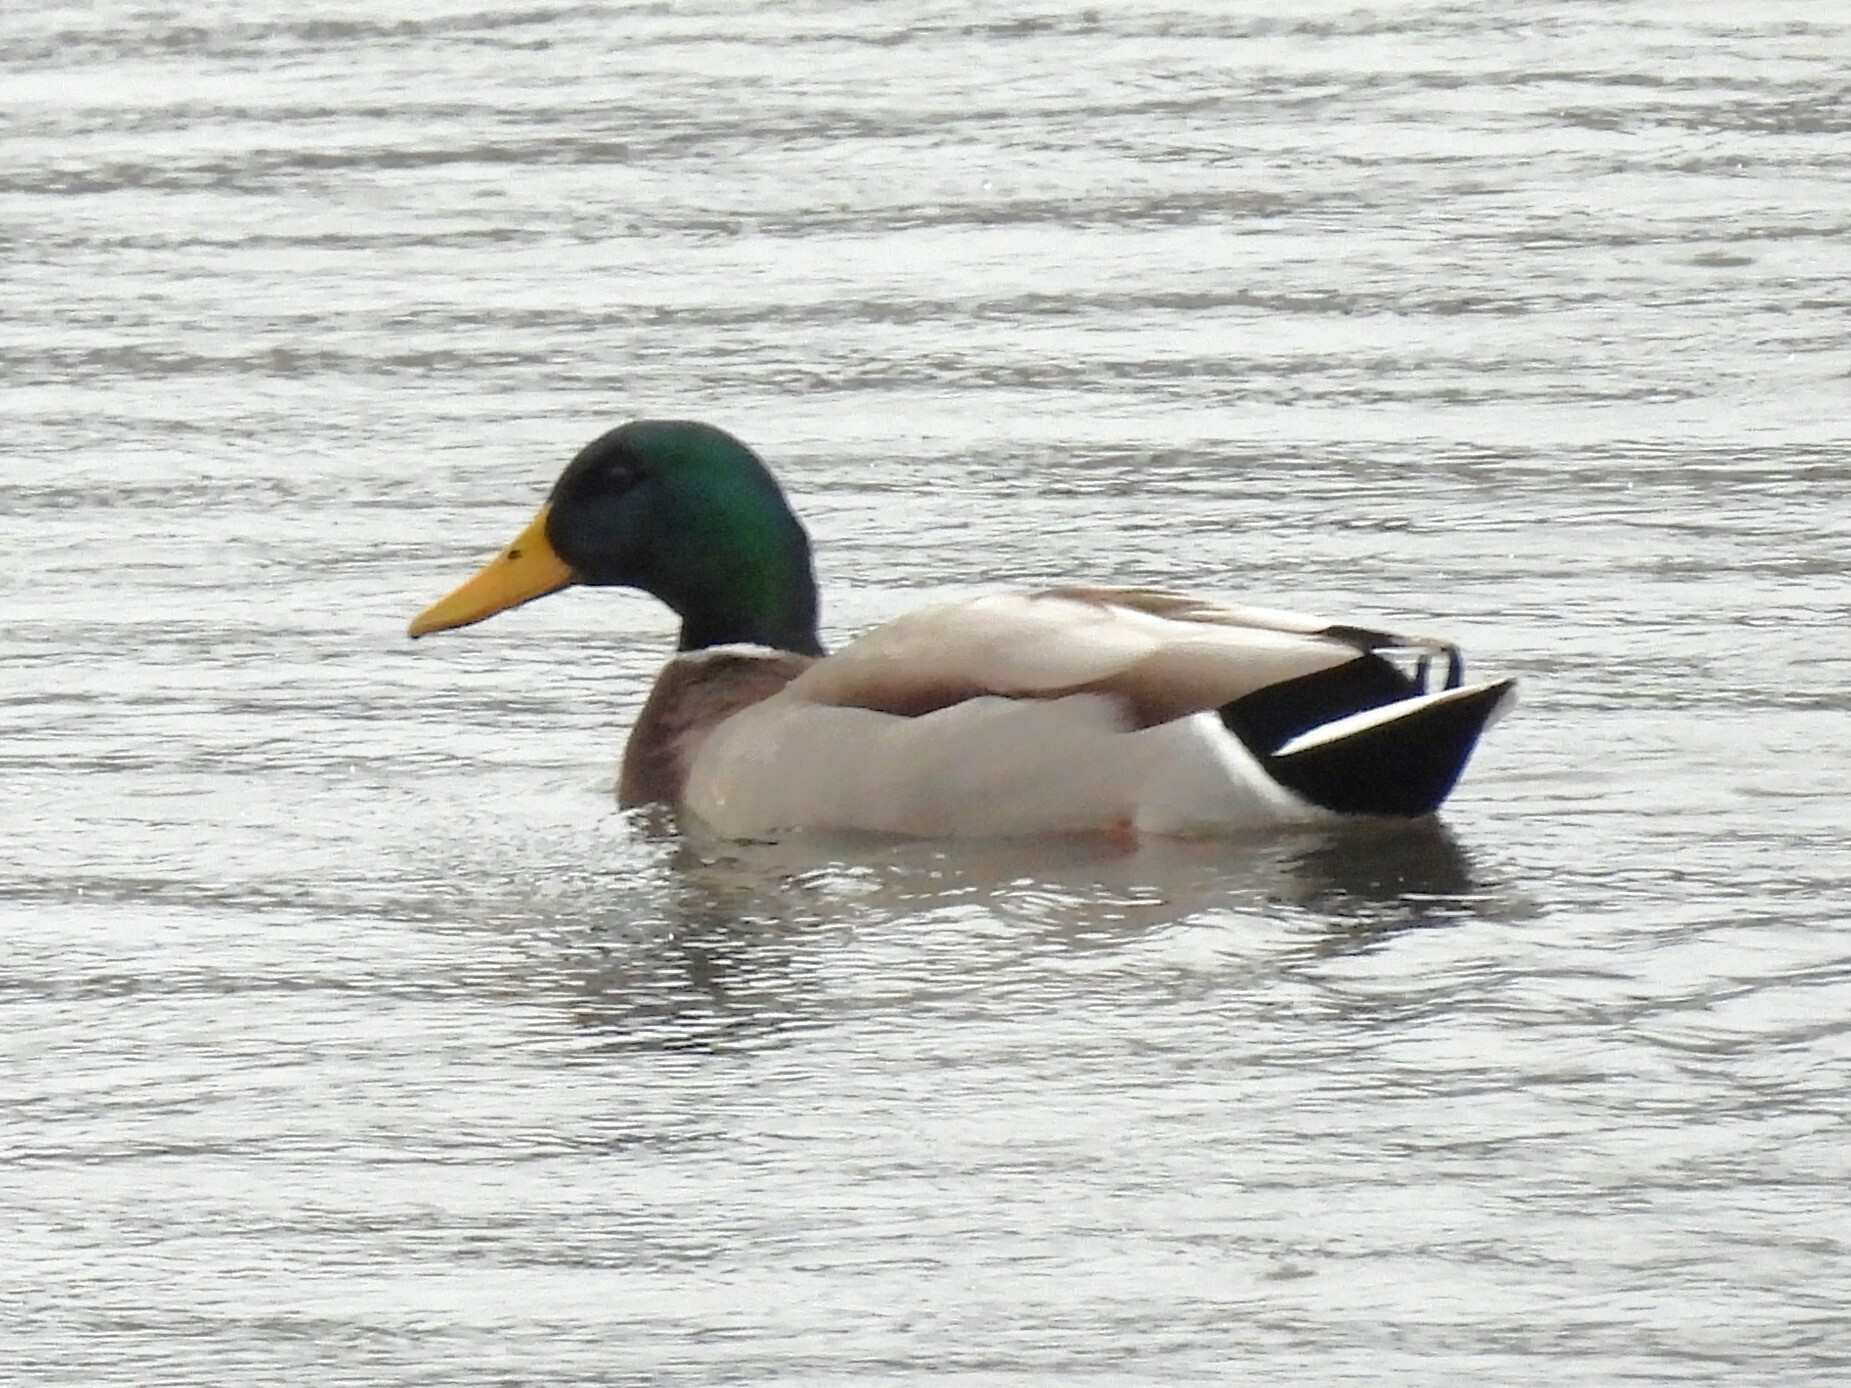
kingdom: Animalia
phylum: Chordata
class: Aves
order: Anseriformes
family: Anatidae
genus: Anas
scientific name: Anas platyrhynchos
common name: Mallard
